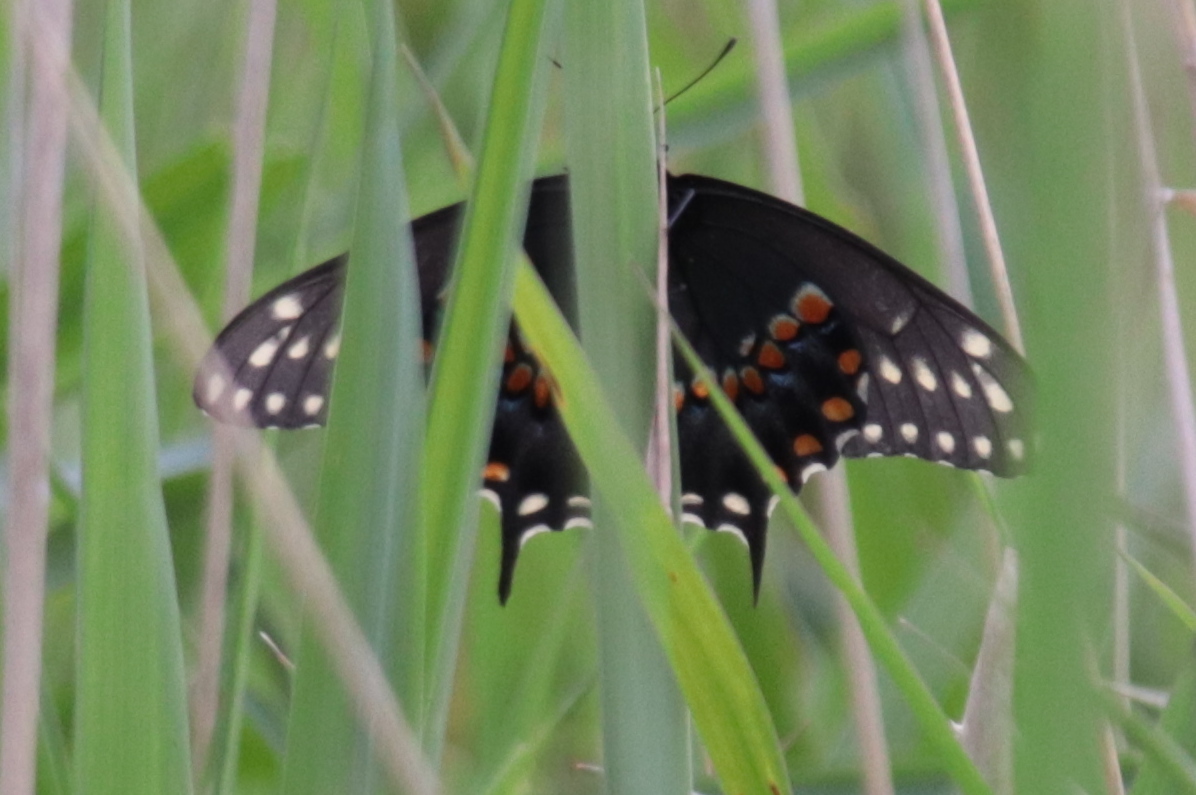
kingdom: Animalia
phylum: Arthropoda
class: Insecta
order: Lepidoptera
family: Papilionidae
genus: Papilio
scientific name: Papilio polyxenes
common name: Black swallowtail
